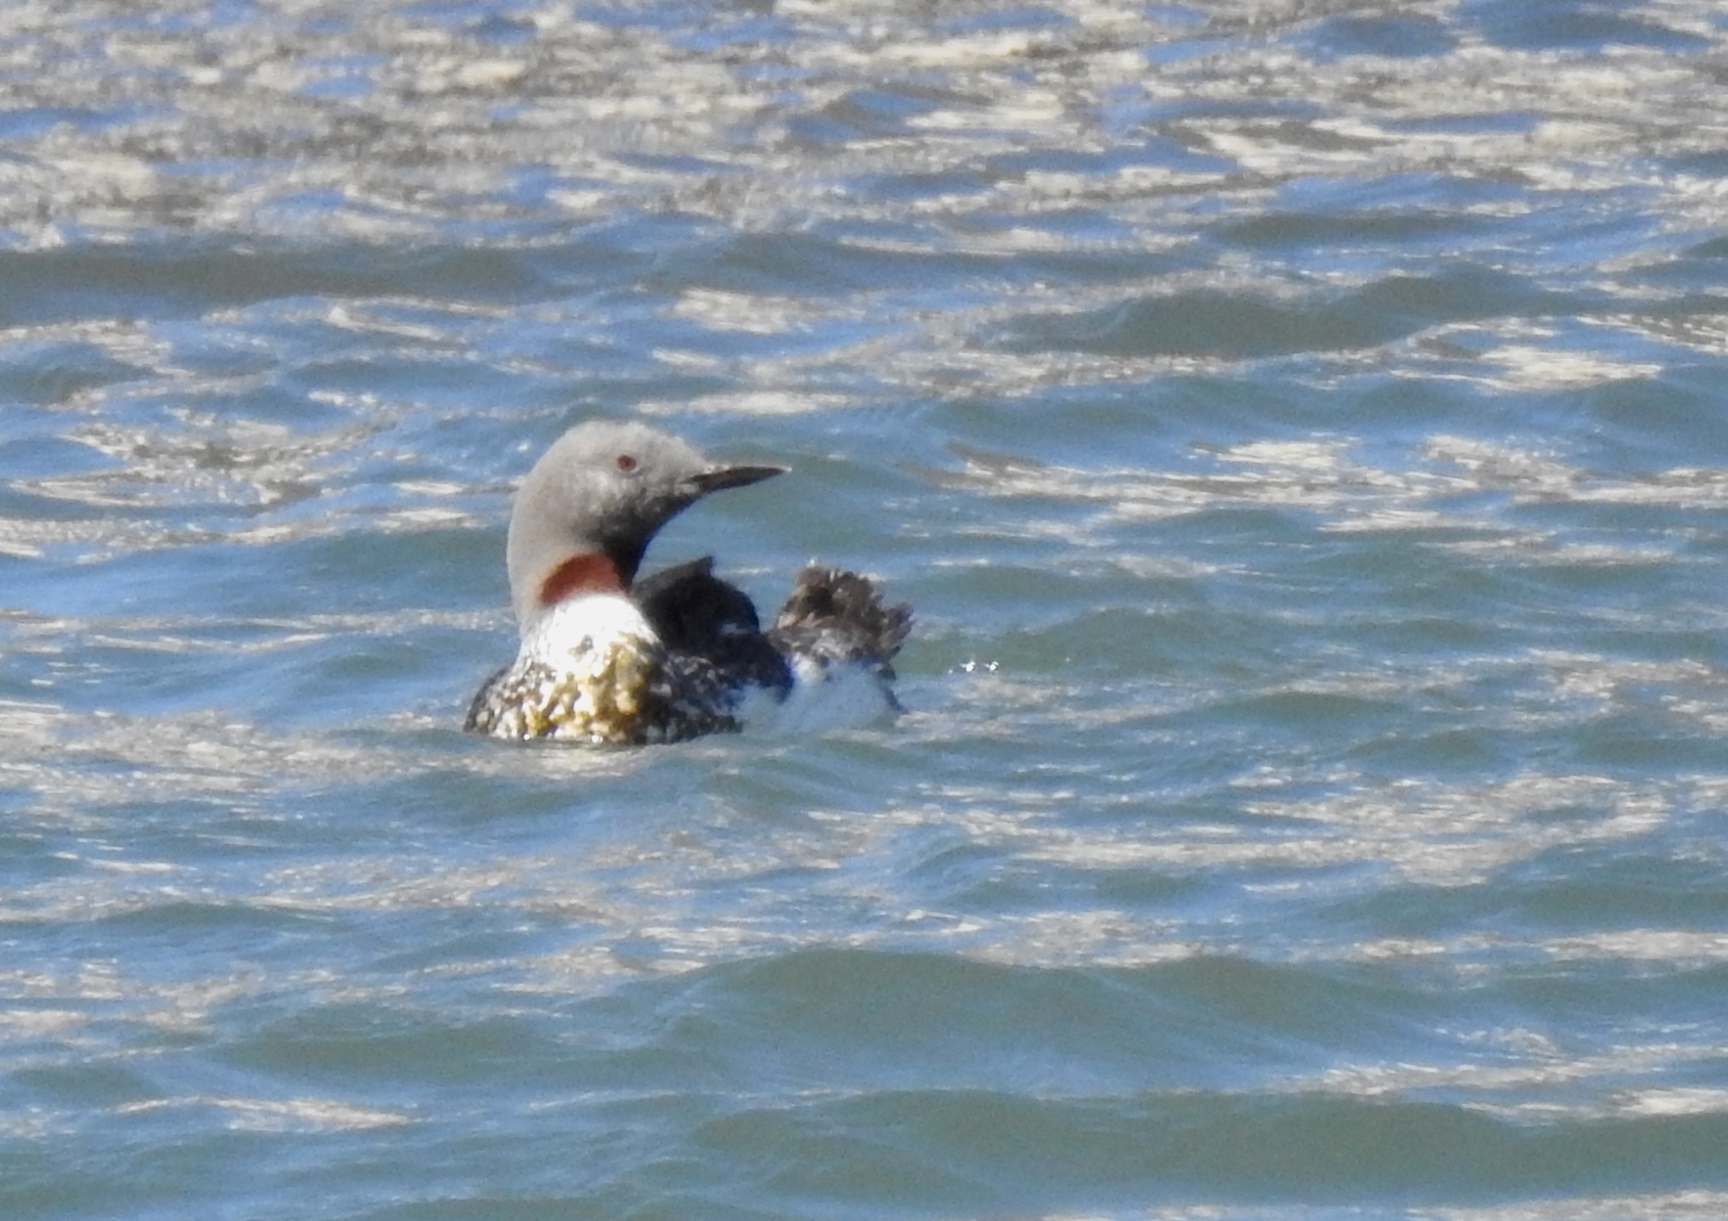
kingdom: Animalia
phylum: Chordata
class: Aves
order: Gaviiformes
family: Gaviidae
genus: Gavia
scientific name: Gavia stellata
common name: Red-throated loon
